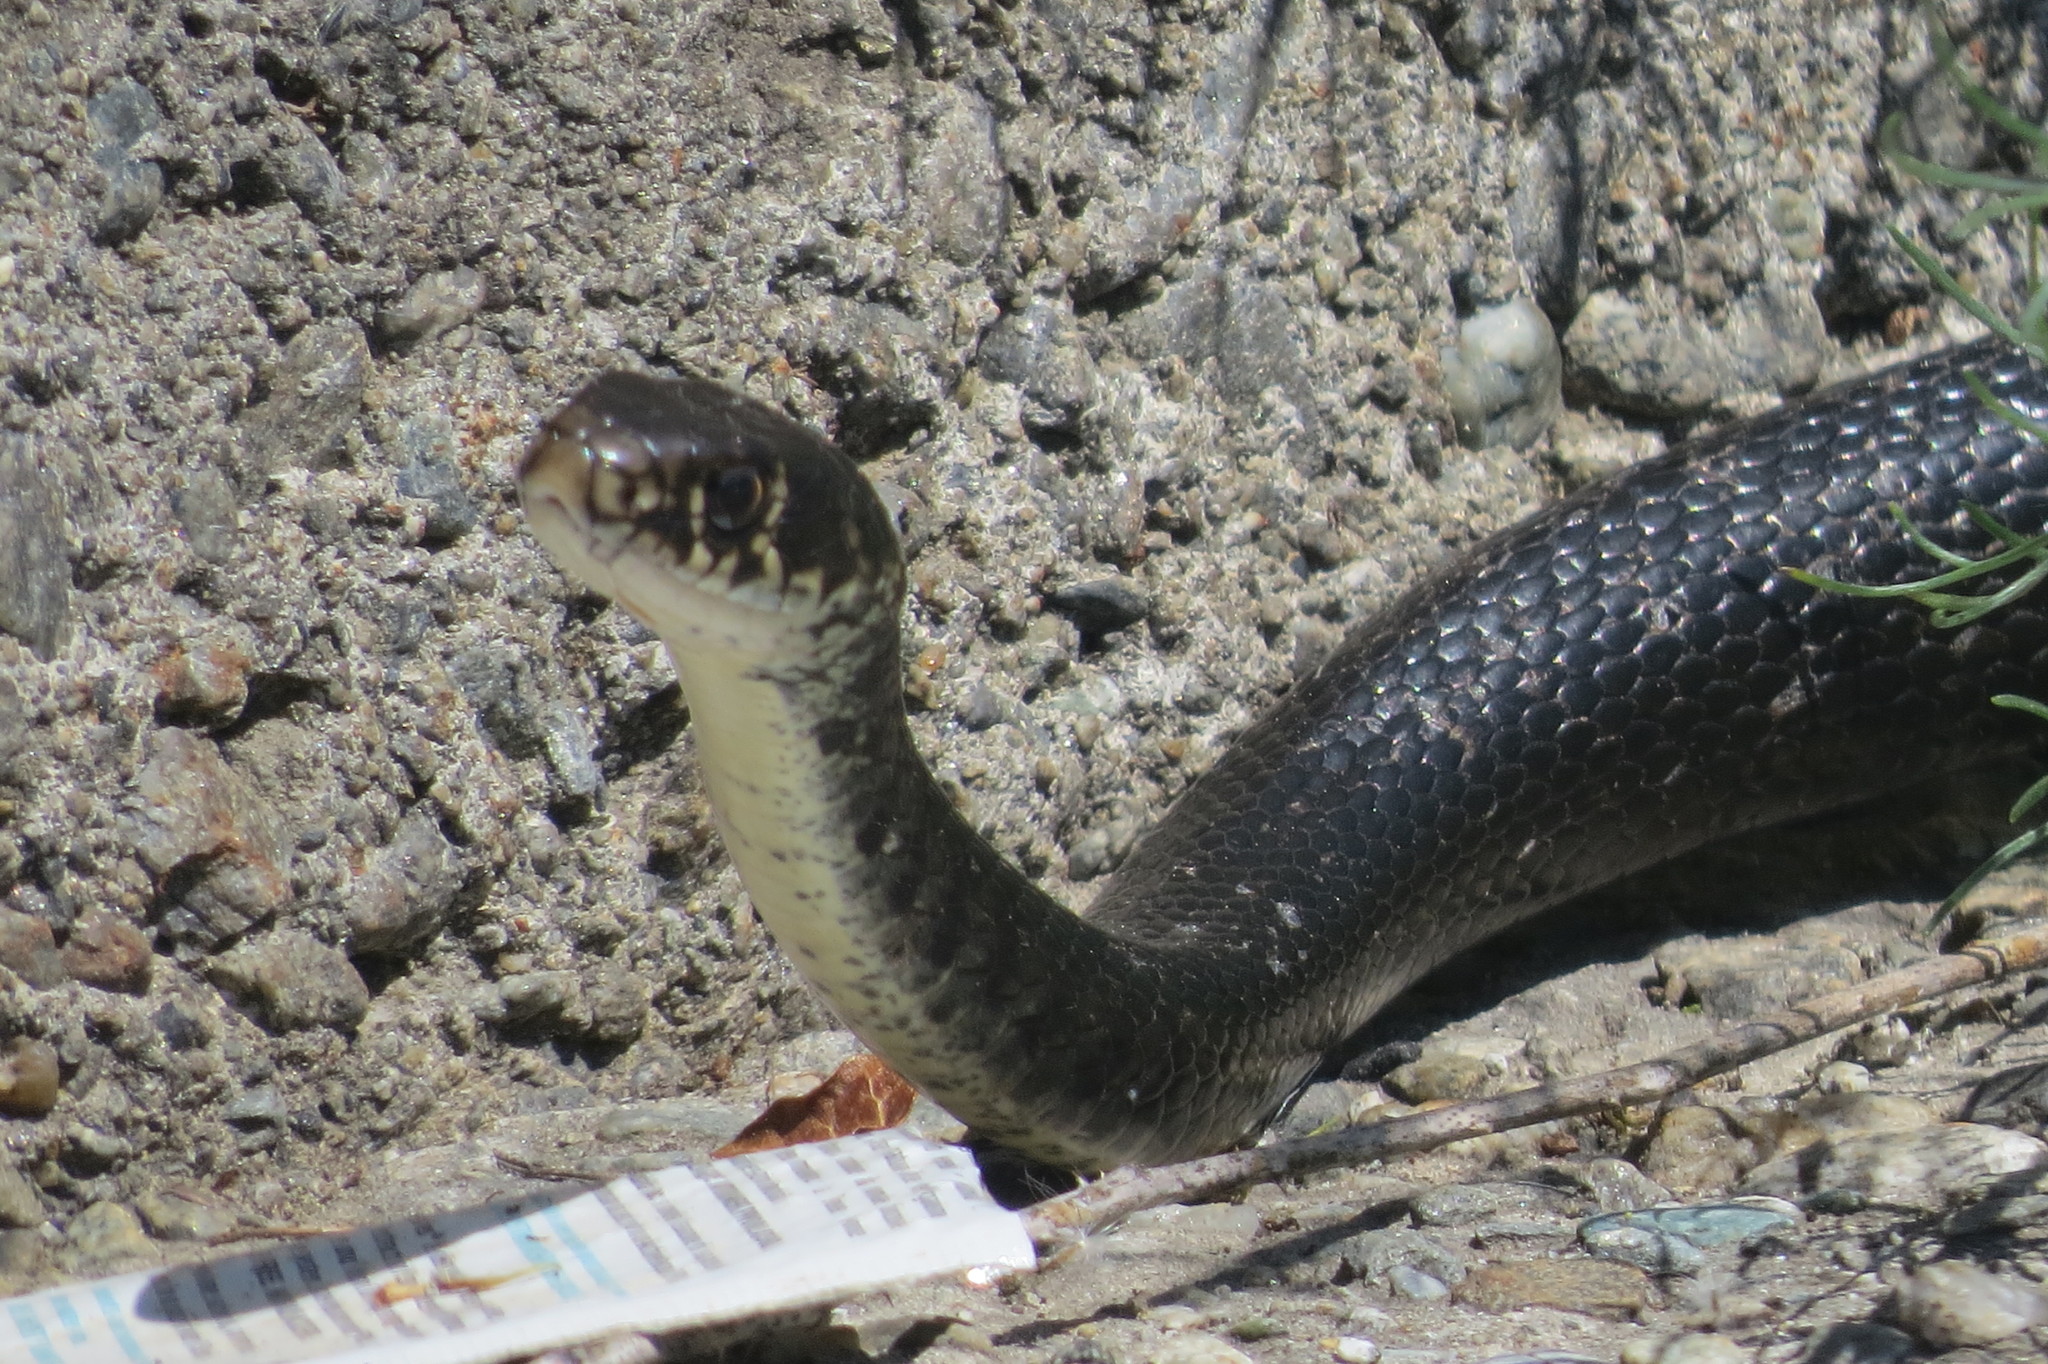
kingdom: Animalia
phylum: Chordata
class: Squamata
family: Colubridae
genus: Hierophis
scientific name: Hierophis viridiflavus
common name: Green whip snake
